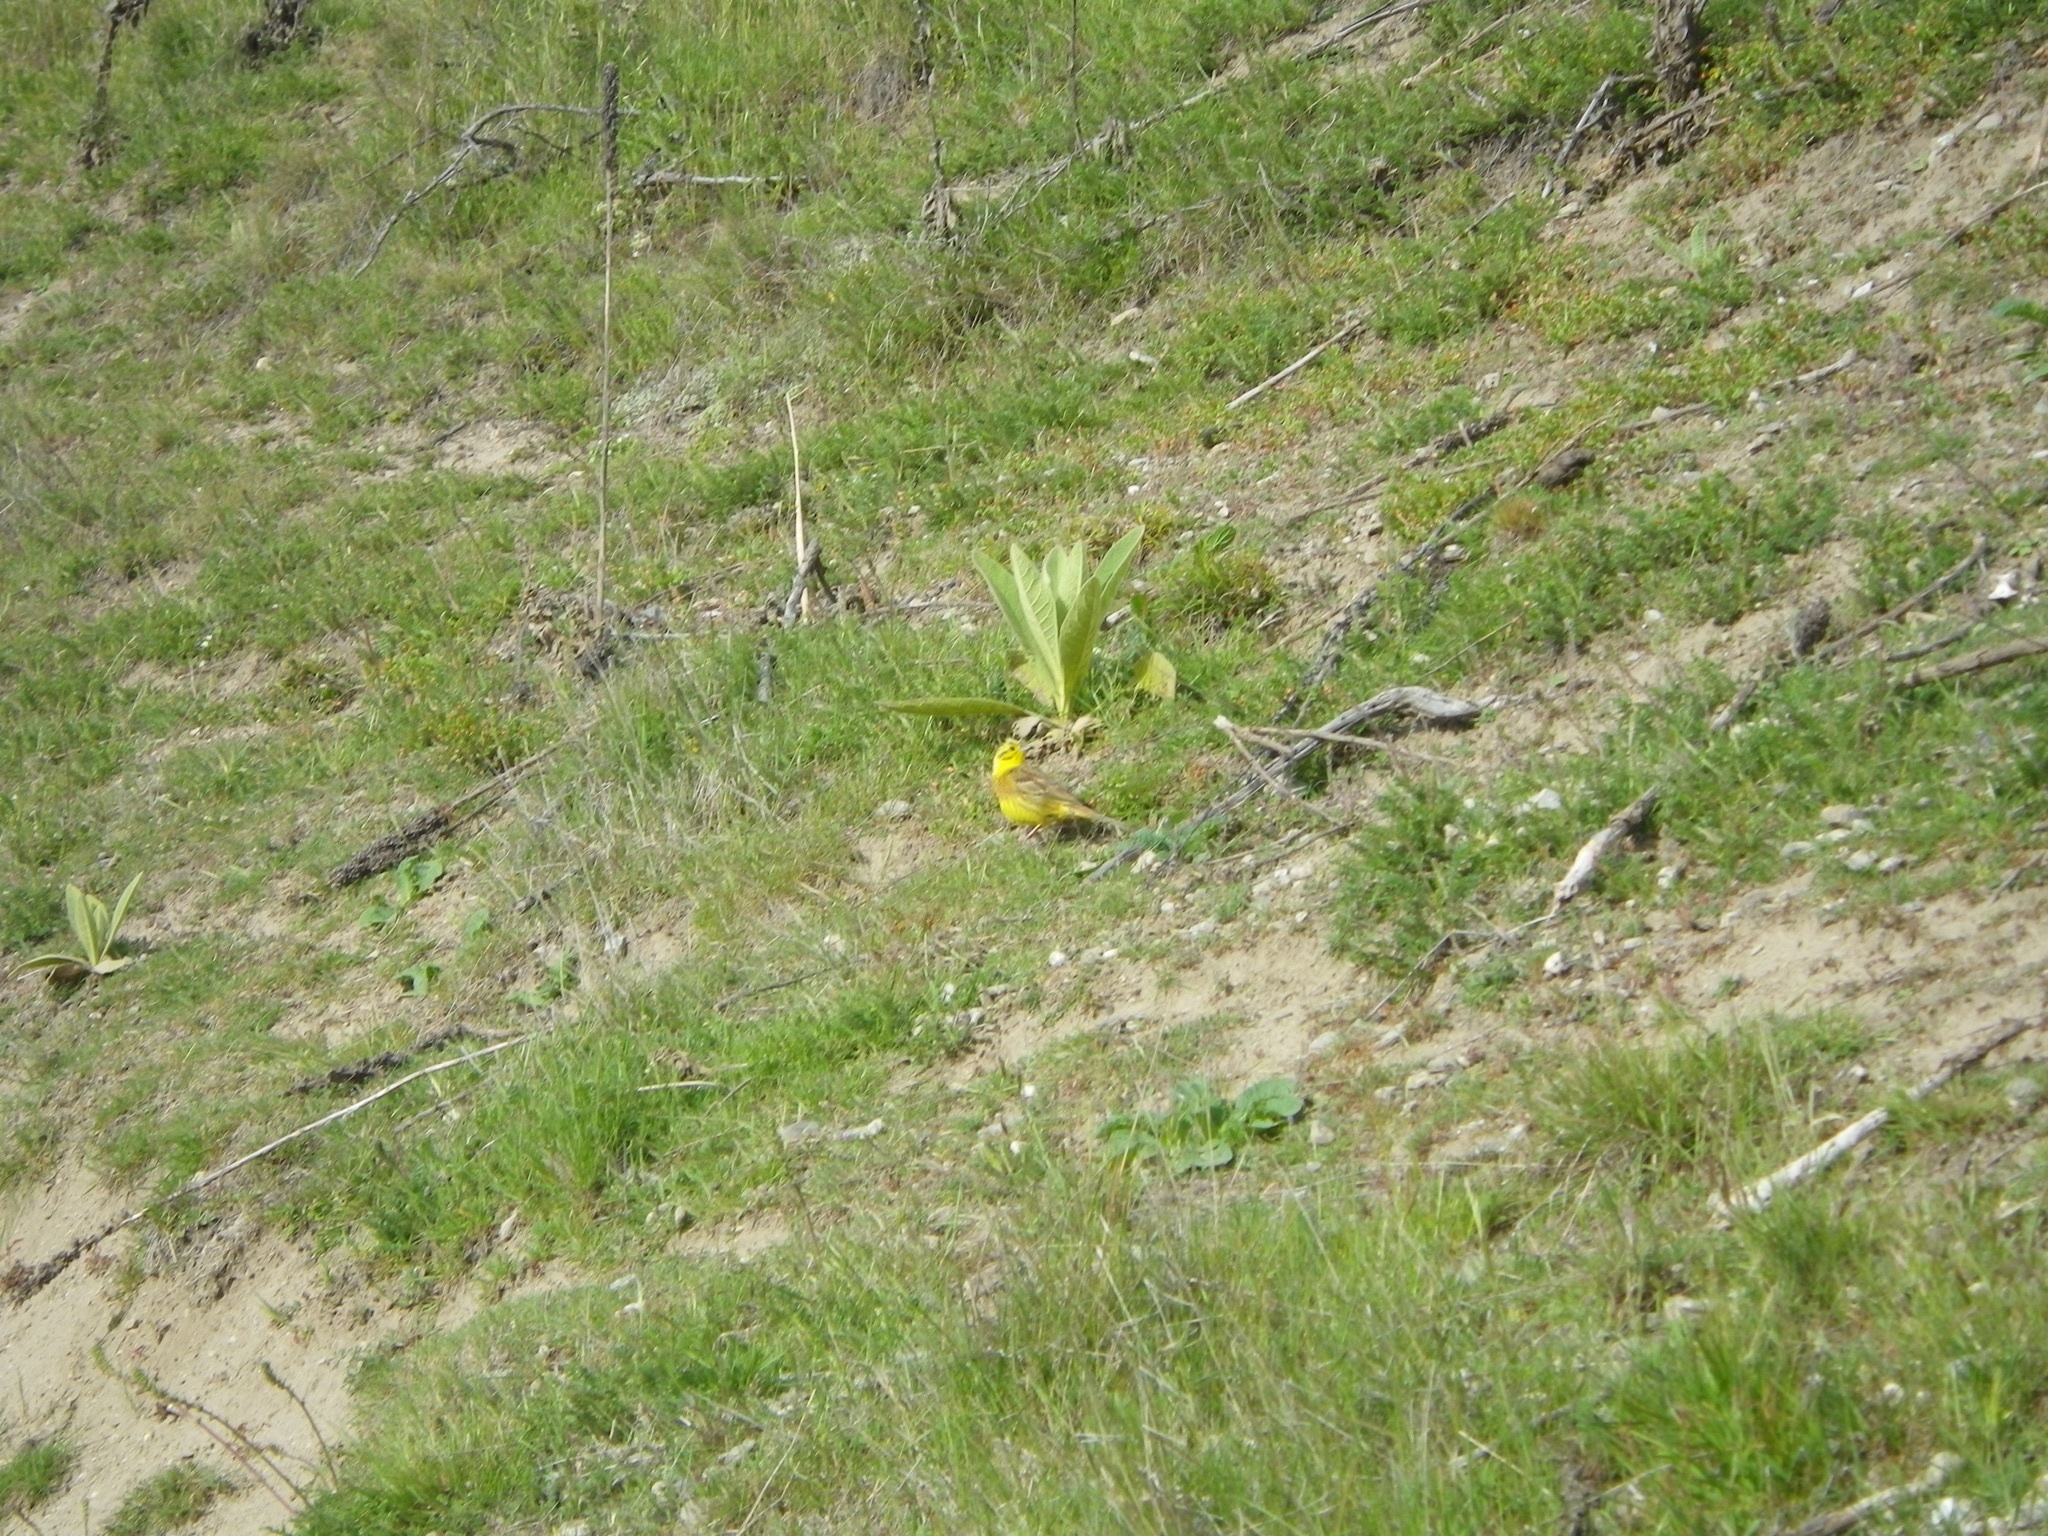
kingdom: Animalia
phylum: Chordata
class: Aves
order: Passeriformes
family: Emberizidae
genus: Emberiza
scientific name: Emberiza citrinella
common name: Yellowhammer
